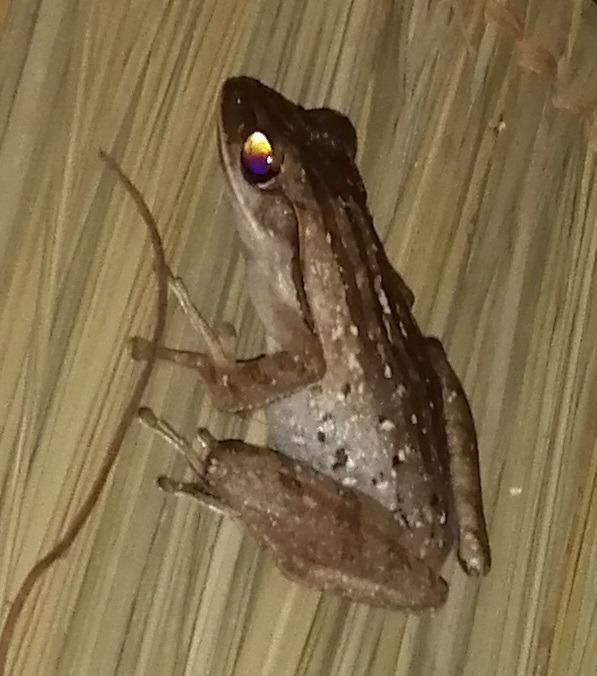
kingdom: Animalia
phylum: Chordata
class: Amphibia
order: Anura
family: Rhacophoridae
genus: Polypedates
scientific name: Polypedates leucomystax
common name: Common tree frog/four-lined tree frog
